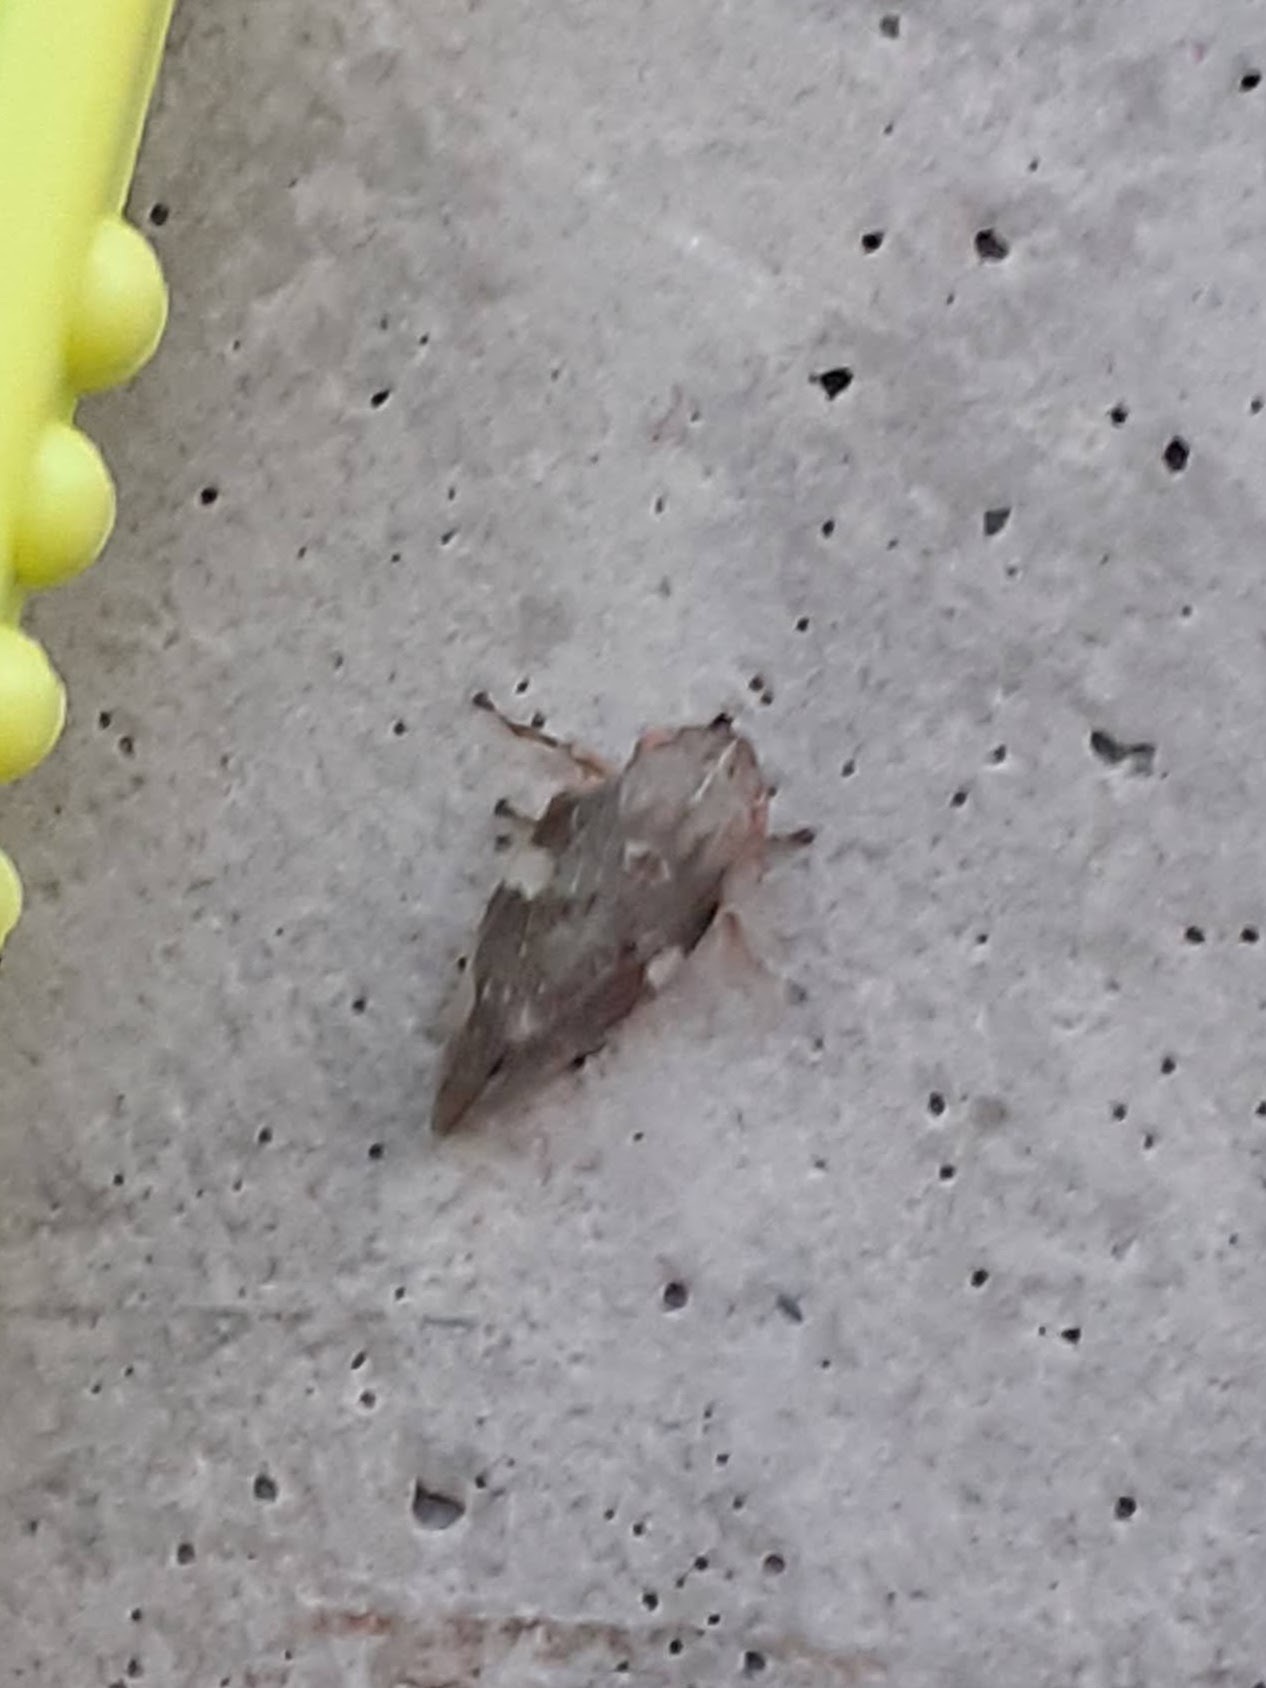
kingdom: Animalia
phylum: Arthropoda
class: Insecta
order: Hemiptera
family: Aphrophoridae
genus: Aphrophora
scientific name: Aphrophora alni
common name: European alder spittlebug
